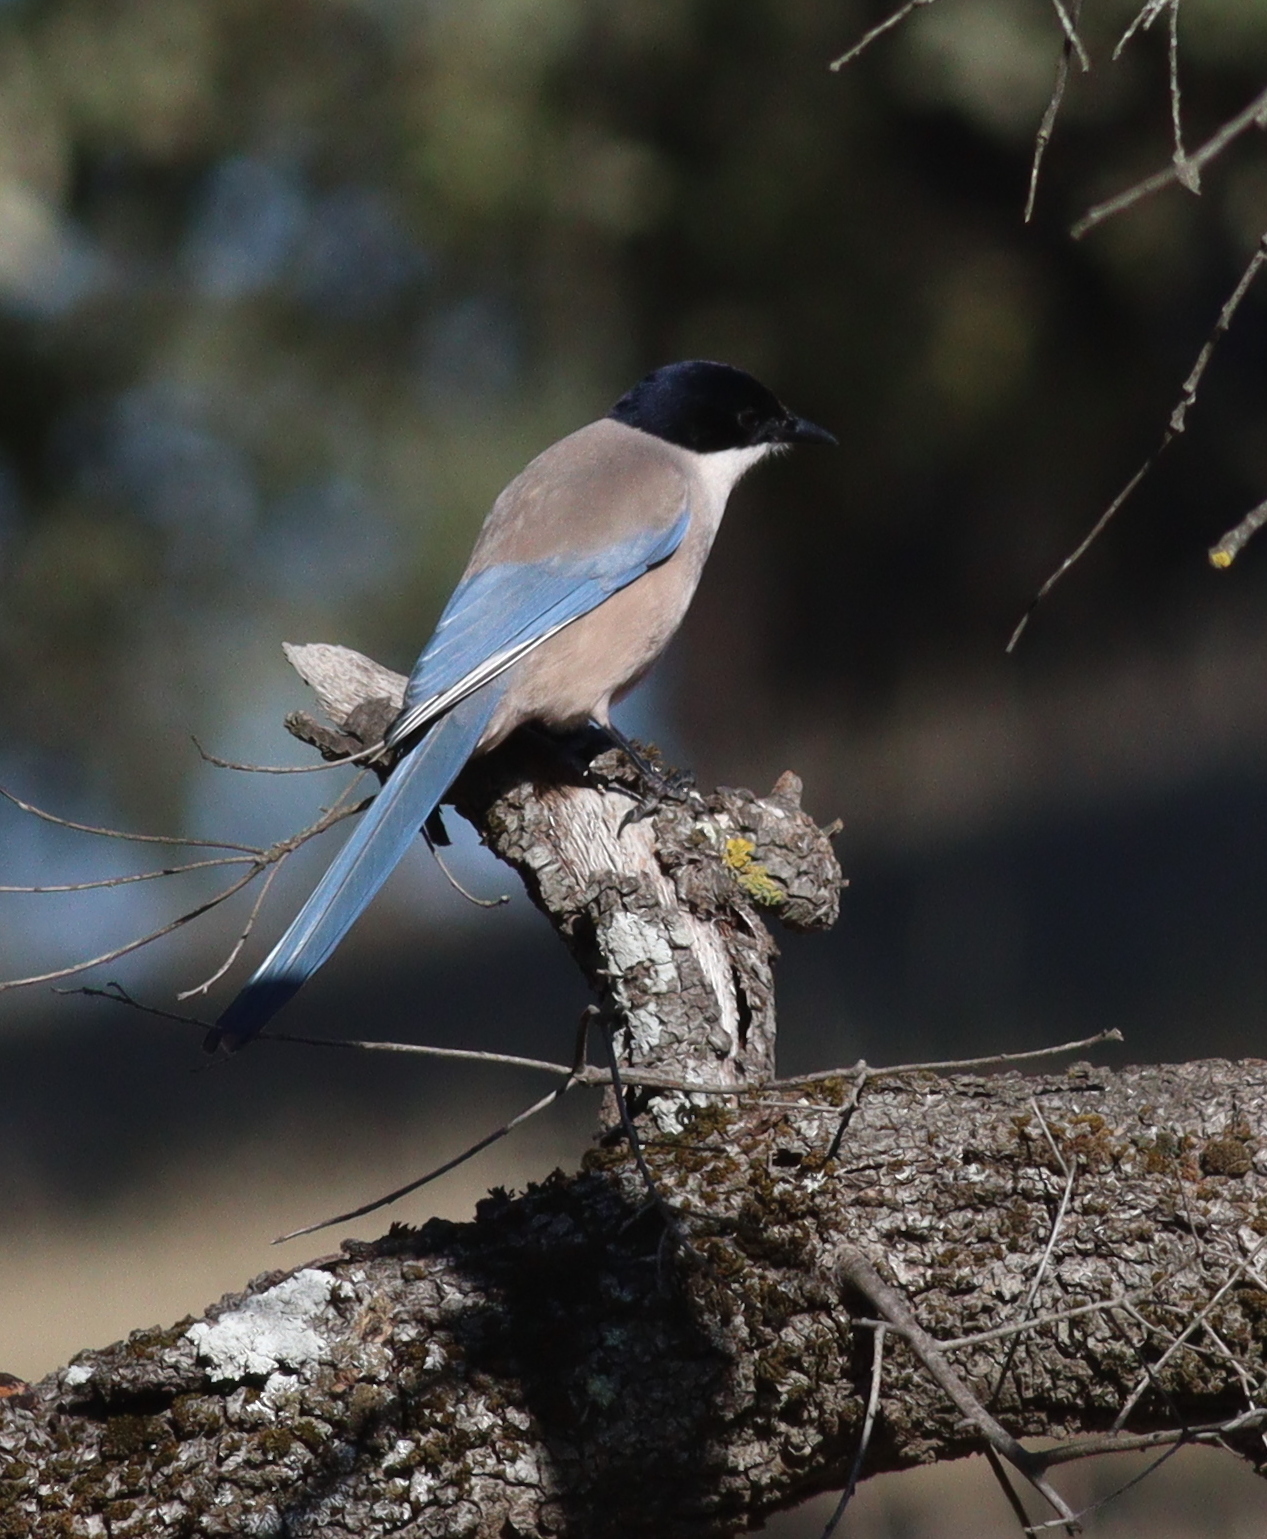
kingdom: Animalia
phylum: Chordata
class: Aves
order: Passeriformes
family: Corvidae
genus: Cyanopica
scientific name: Cyanopica cooki
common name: Iberian magpie
